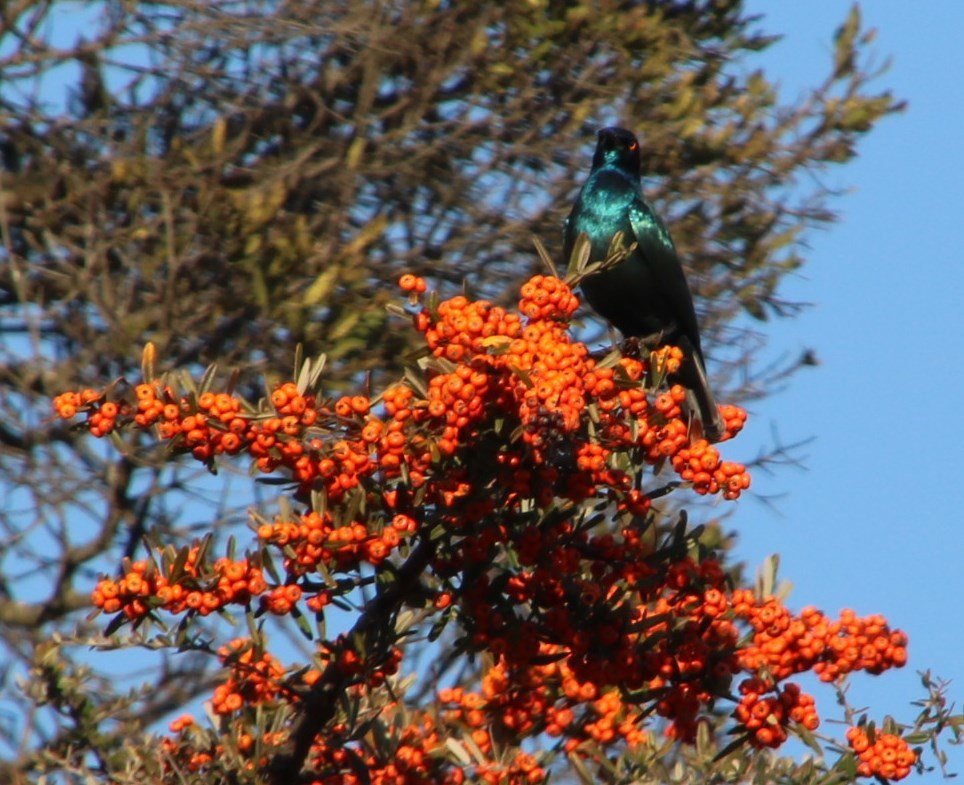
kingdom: Animalia
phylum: Chordata
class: Aves
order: Passeriformes
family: Sturnidae
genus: Lamprotornis
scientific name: Lamprotornis nitens
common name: Cape starling
